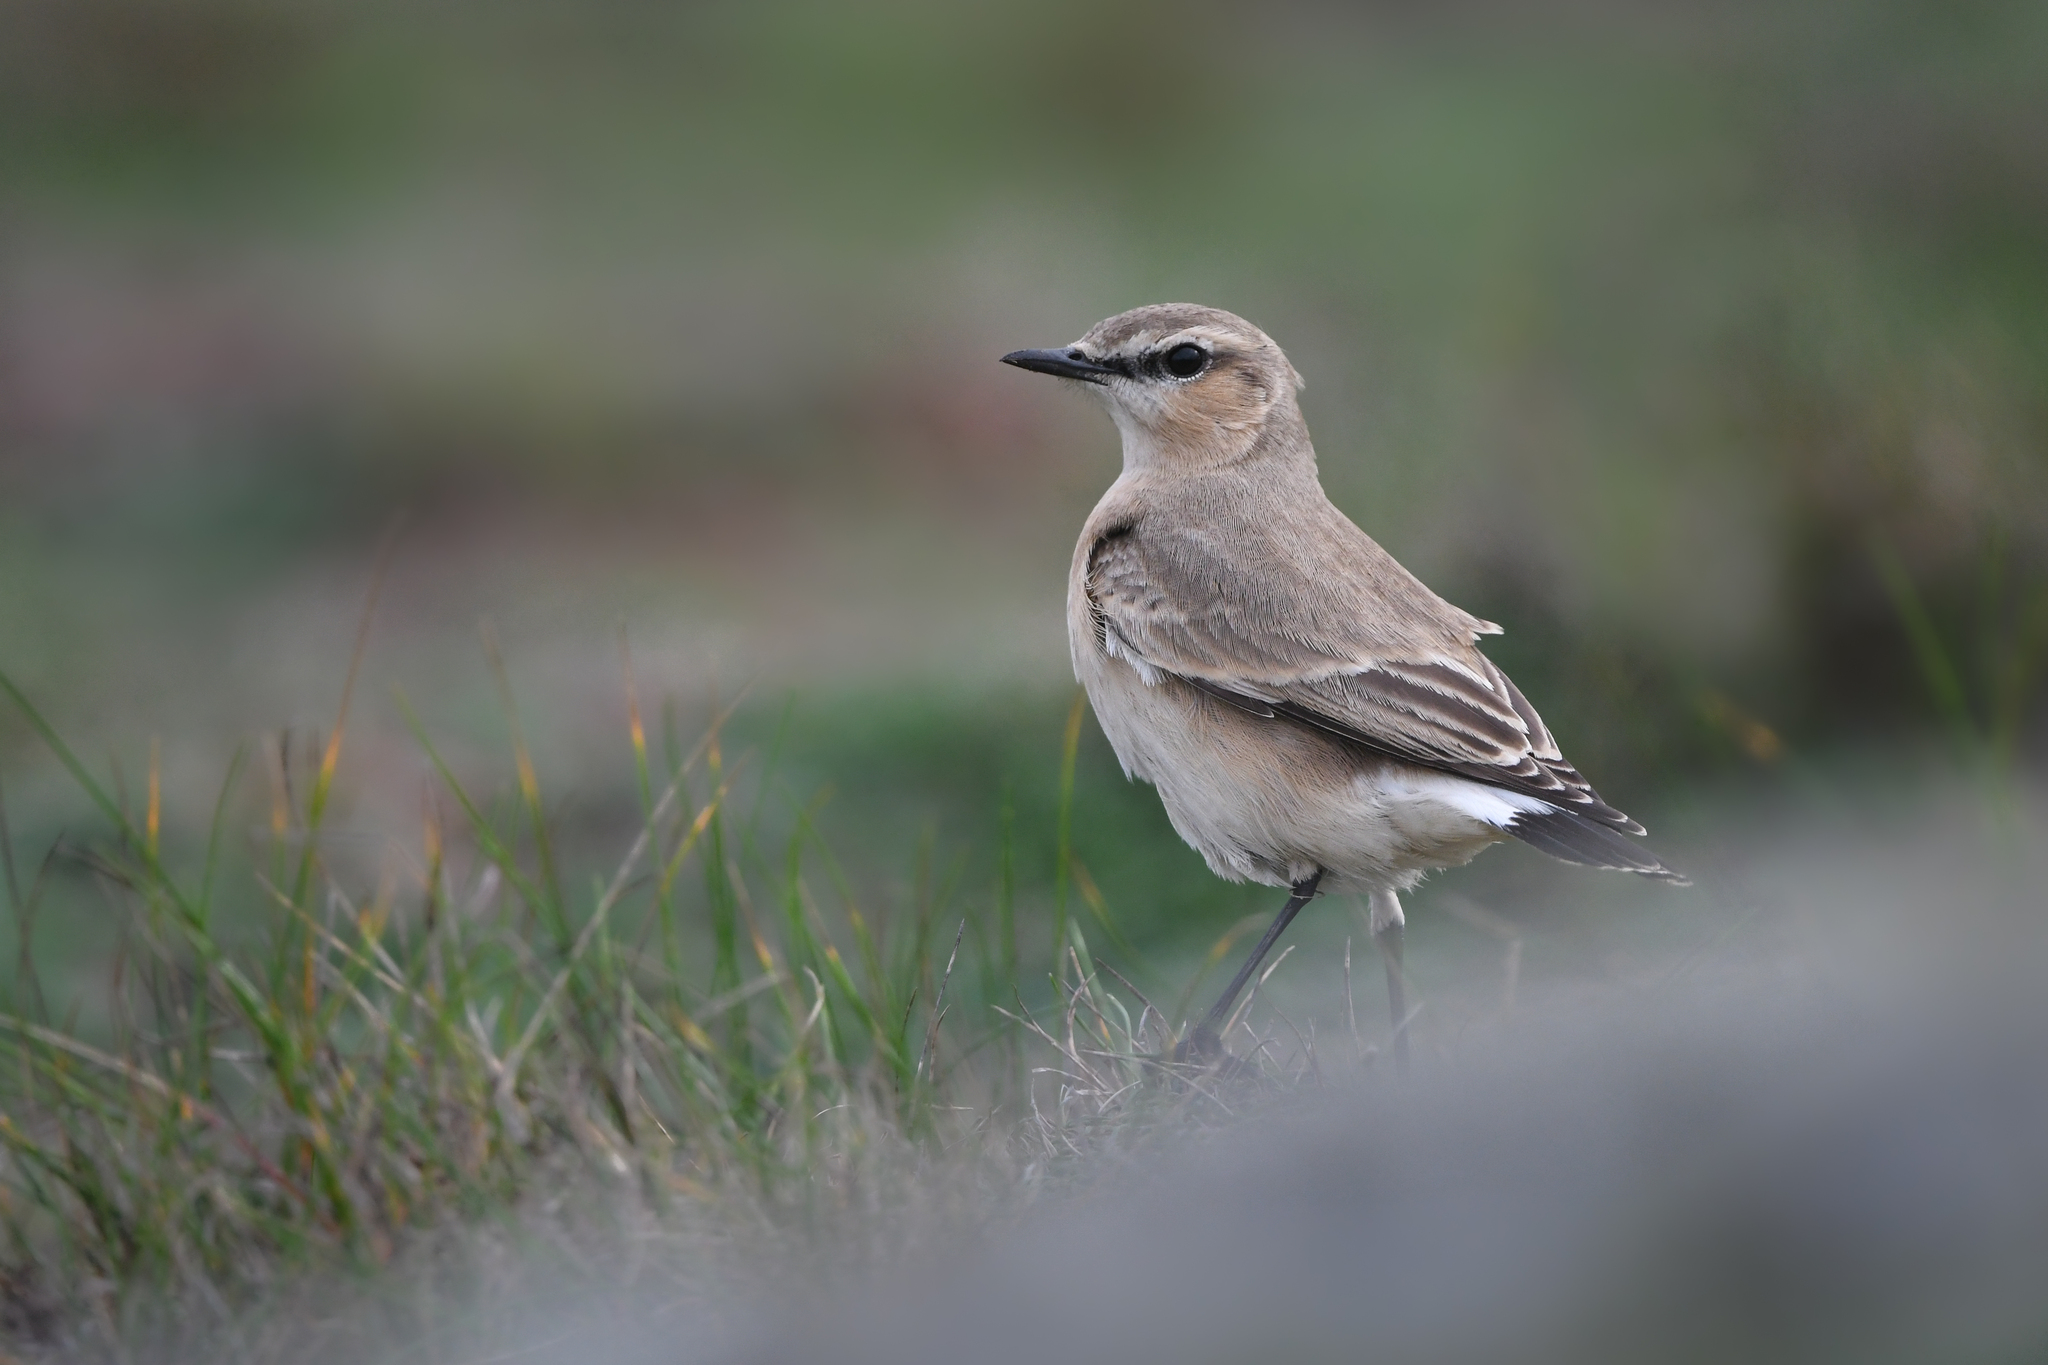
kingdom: Animalia
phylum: Chordata
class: Aves
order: Passeriformes
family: Muscicapidae
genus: Oenanthe
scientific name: Oenanthe isabellina
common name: Isabelline wheatear
